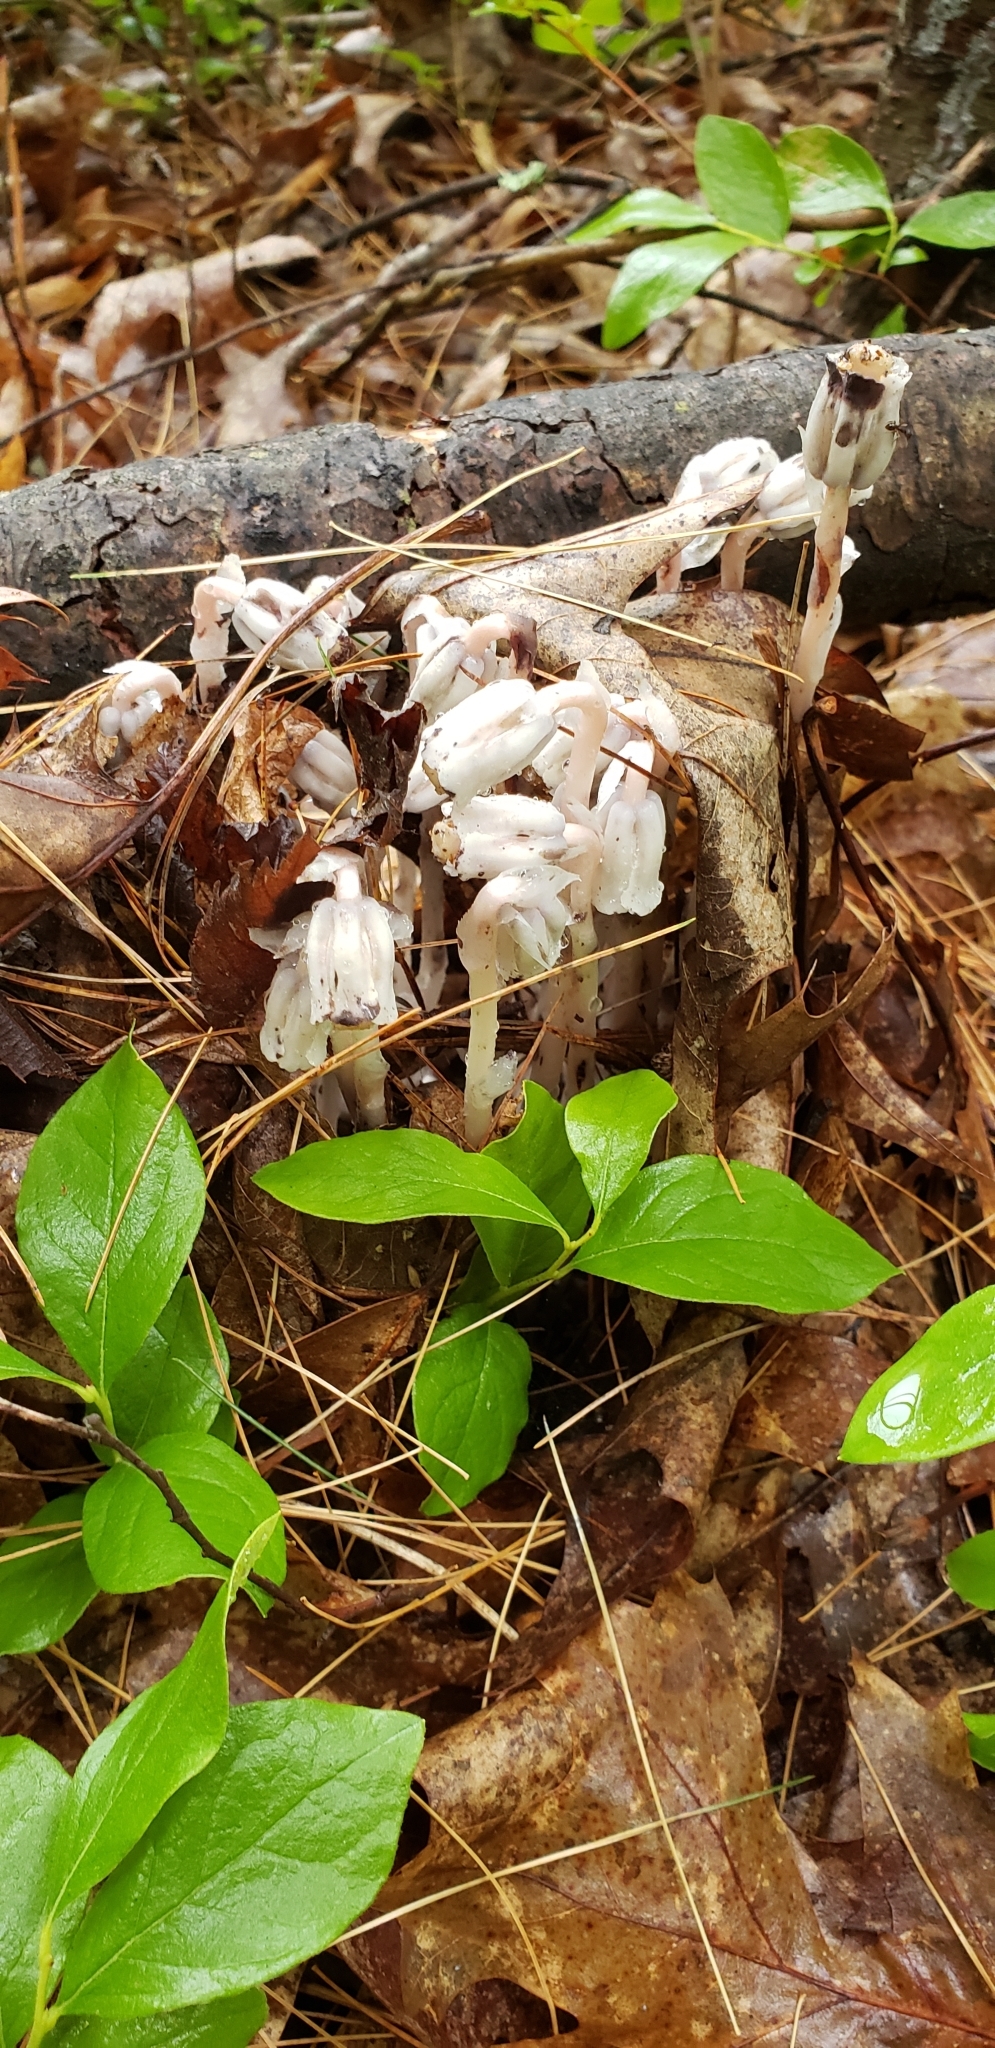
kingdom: Plantae
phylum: Tracheophyta
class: Magnoliopsida
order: Ericales
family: Ericaceae
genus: Monotropa
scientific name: Monotropa uniflora
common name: Convulsion root
